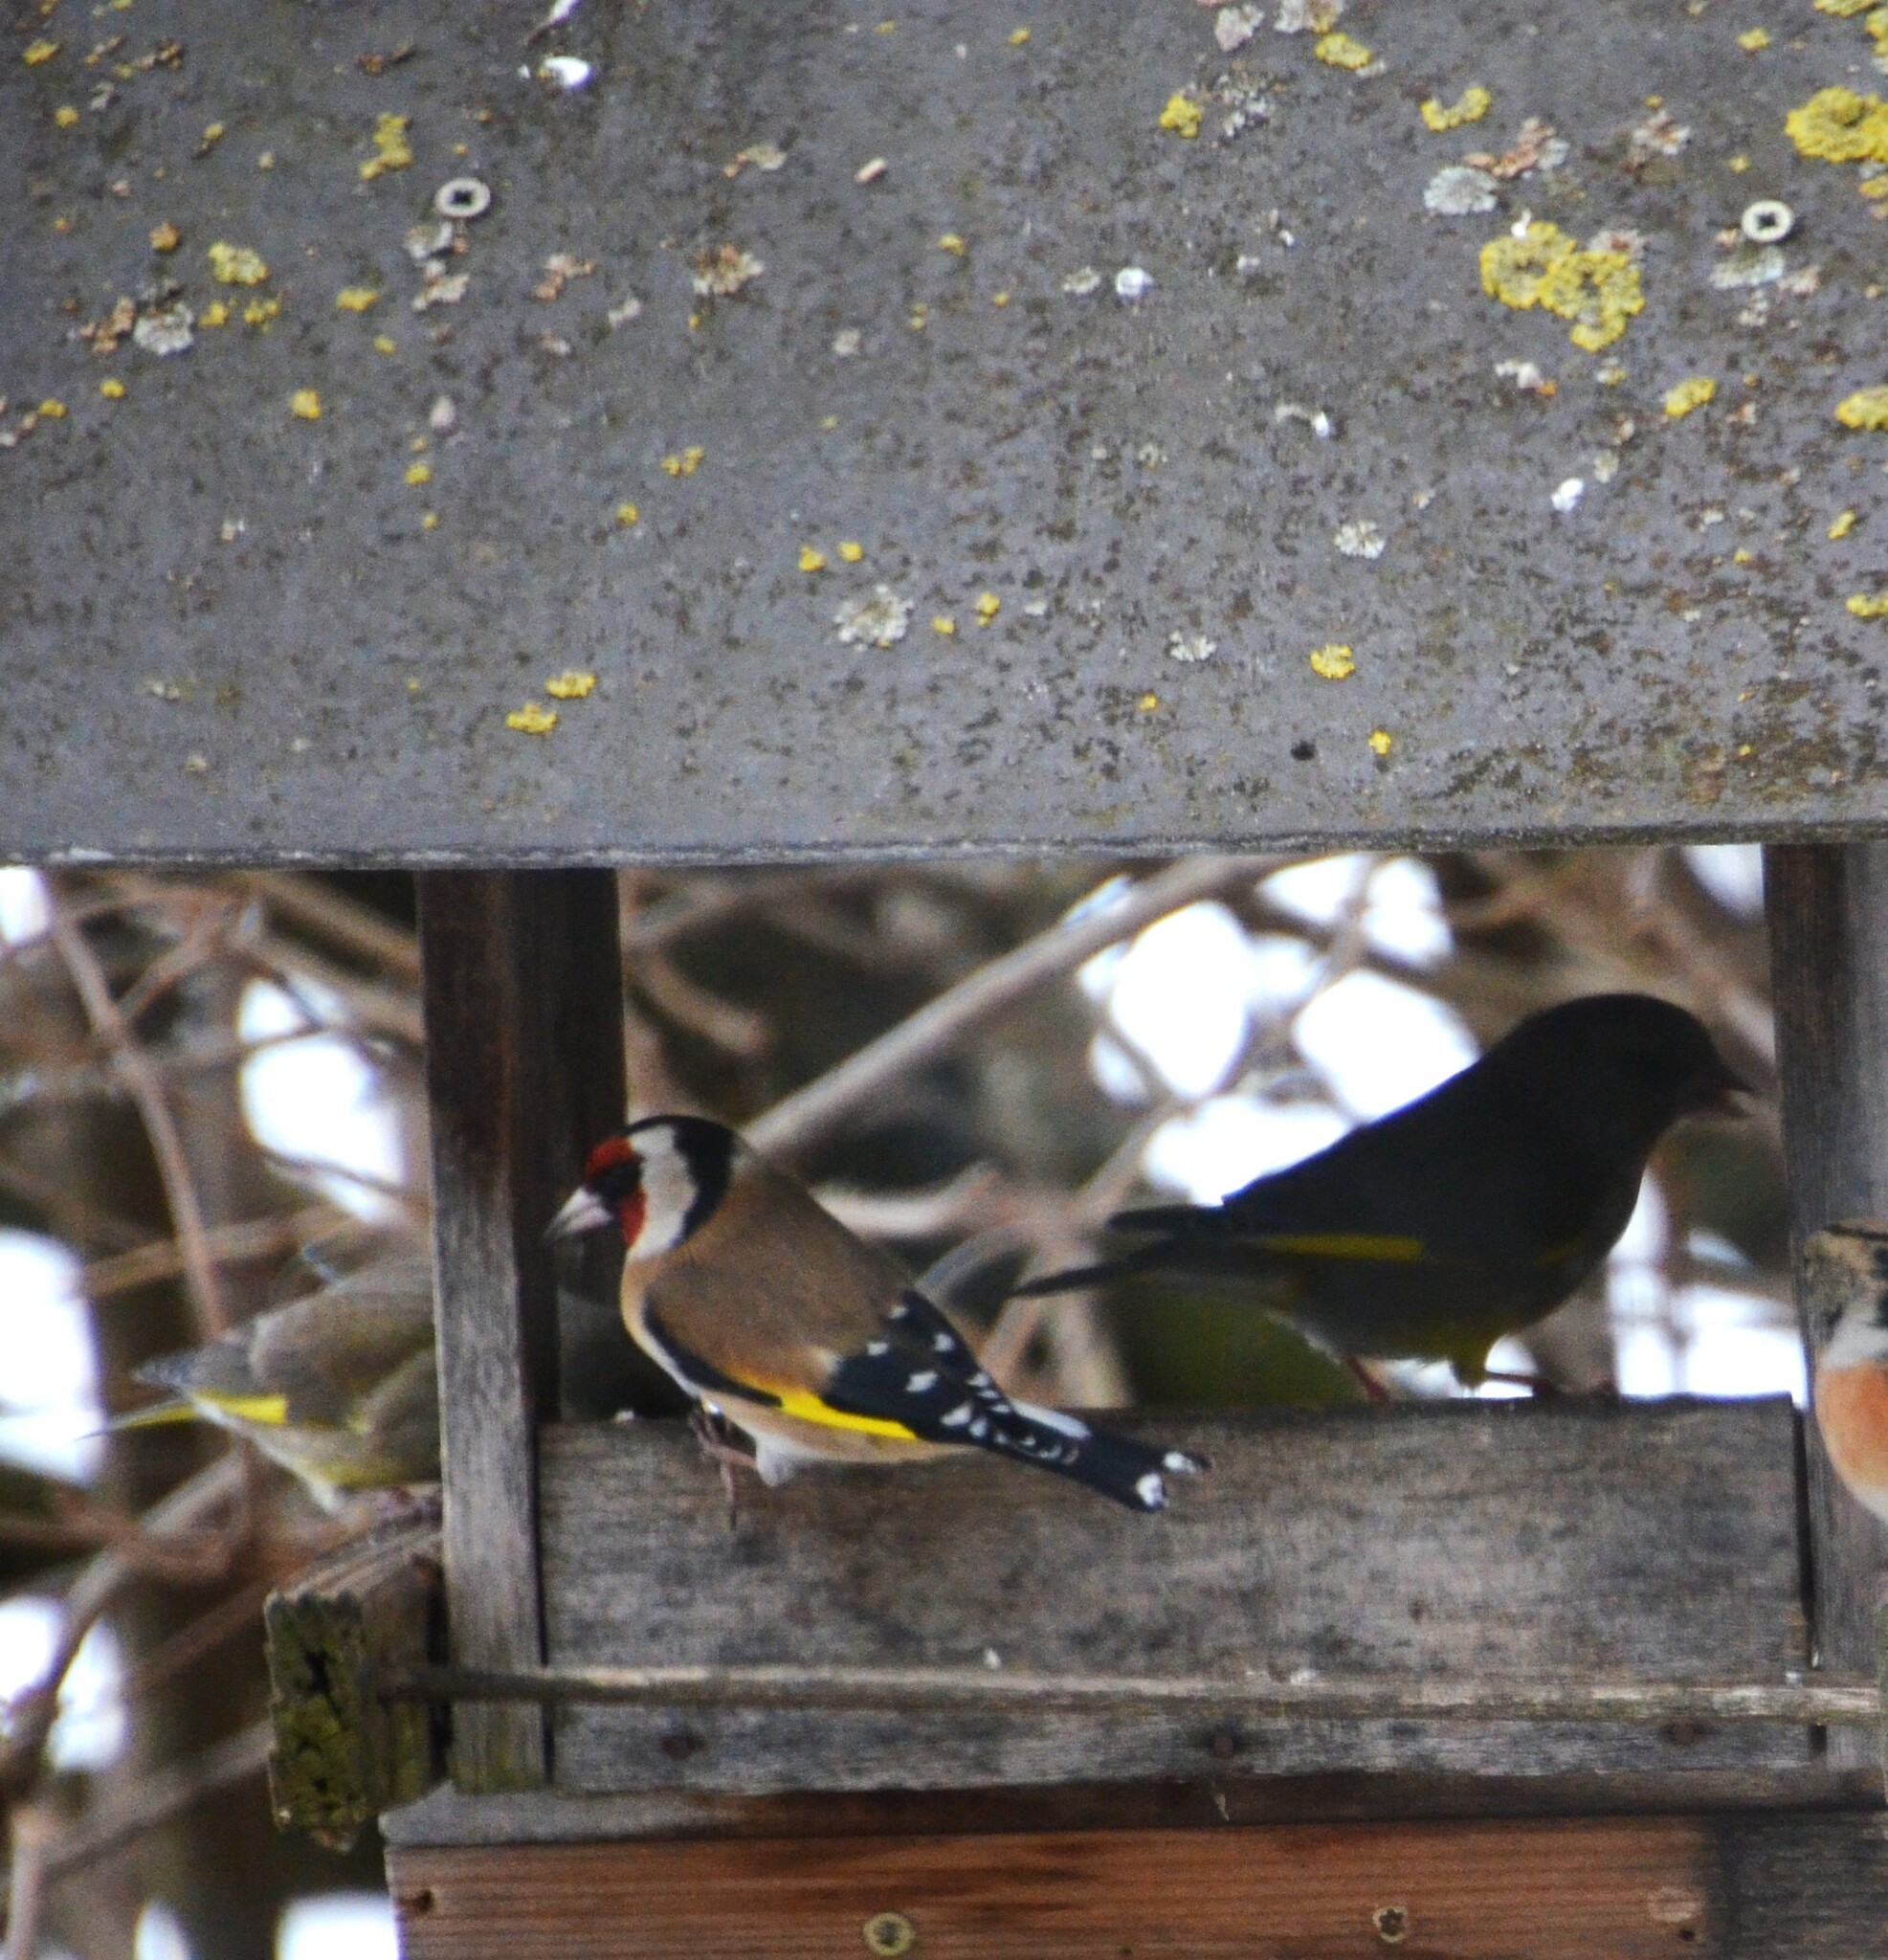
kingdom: Animalia
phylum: Chordata
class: Aves
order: Passeriformes
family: Fringillidae
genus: Carduelis
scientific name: Carduelis carduelis
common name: European goldfinch
